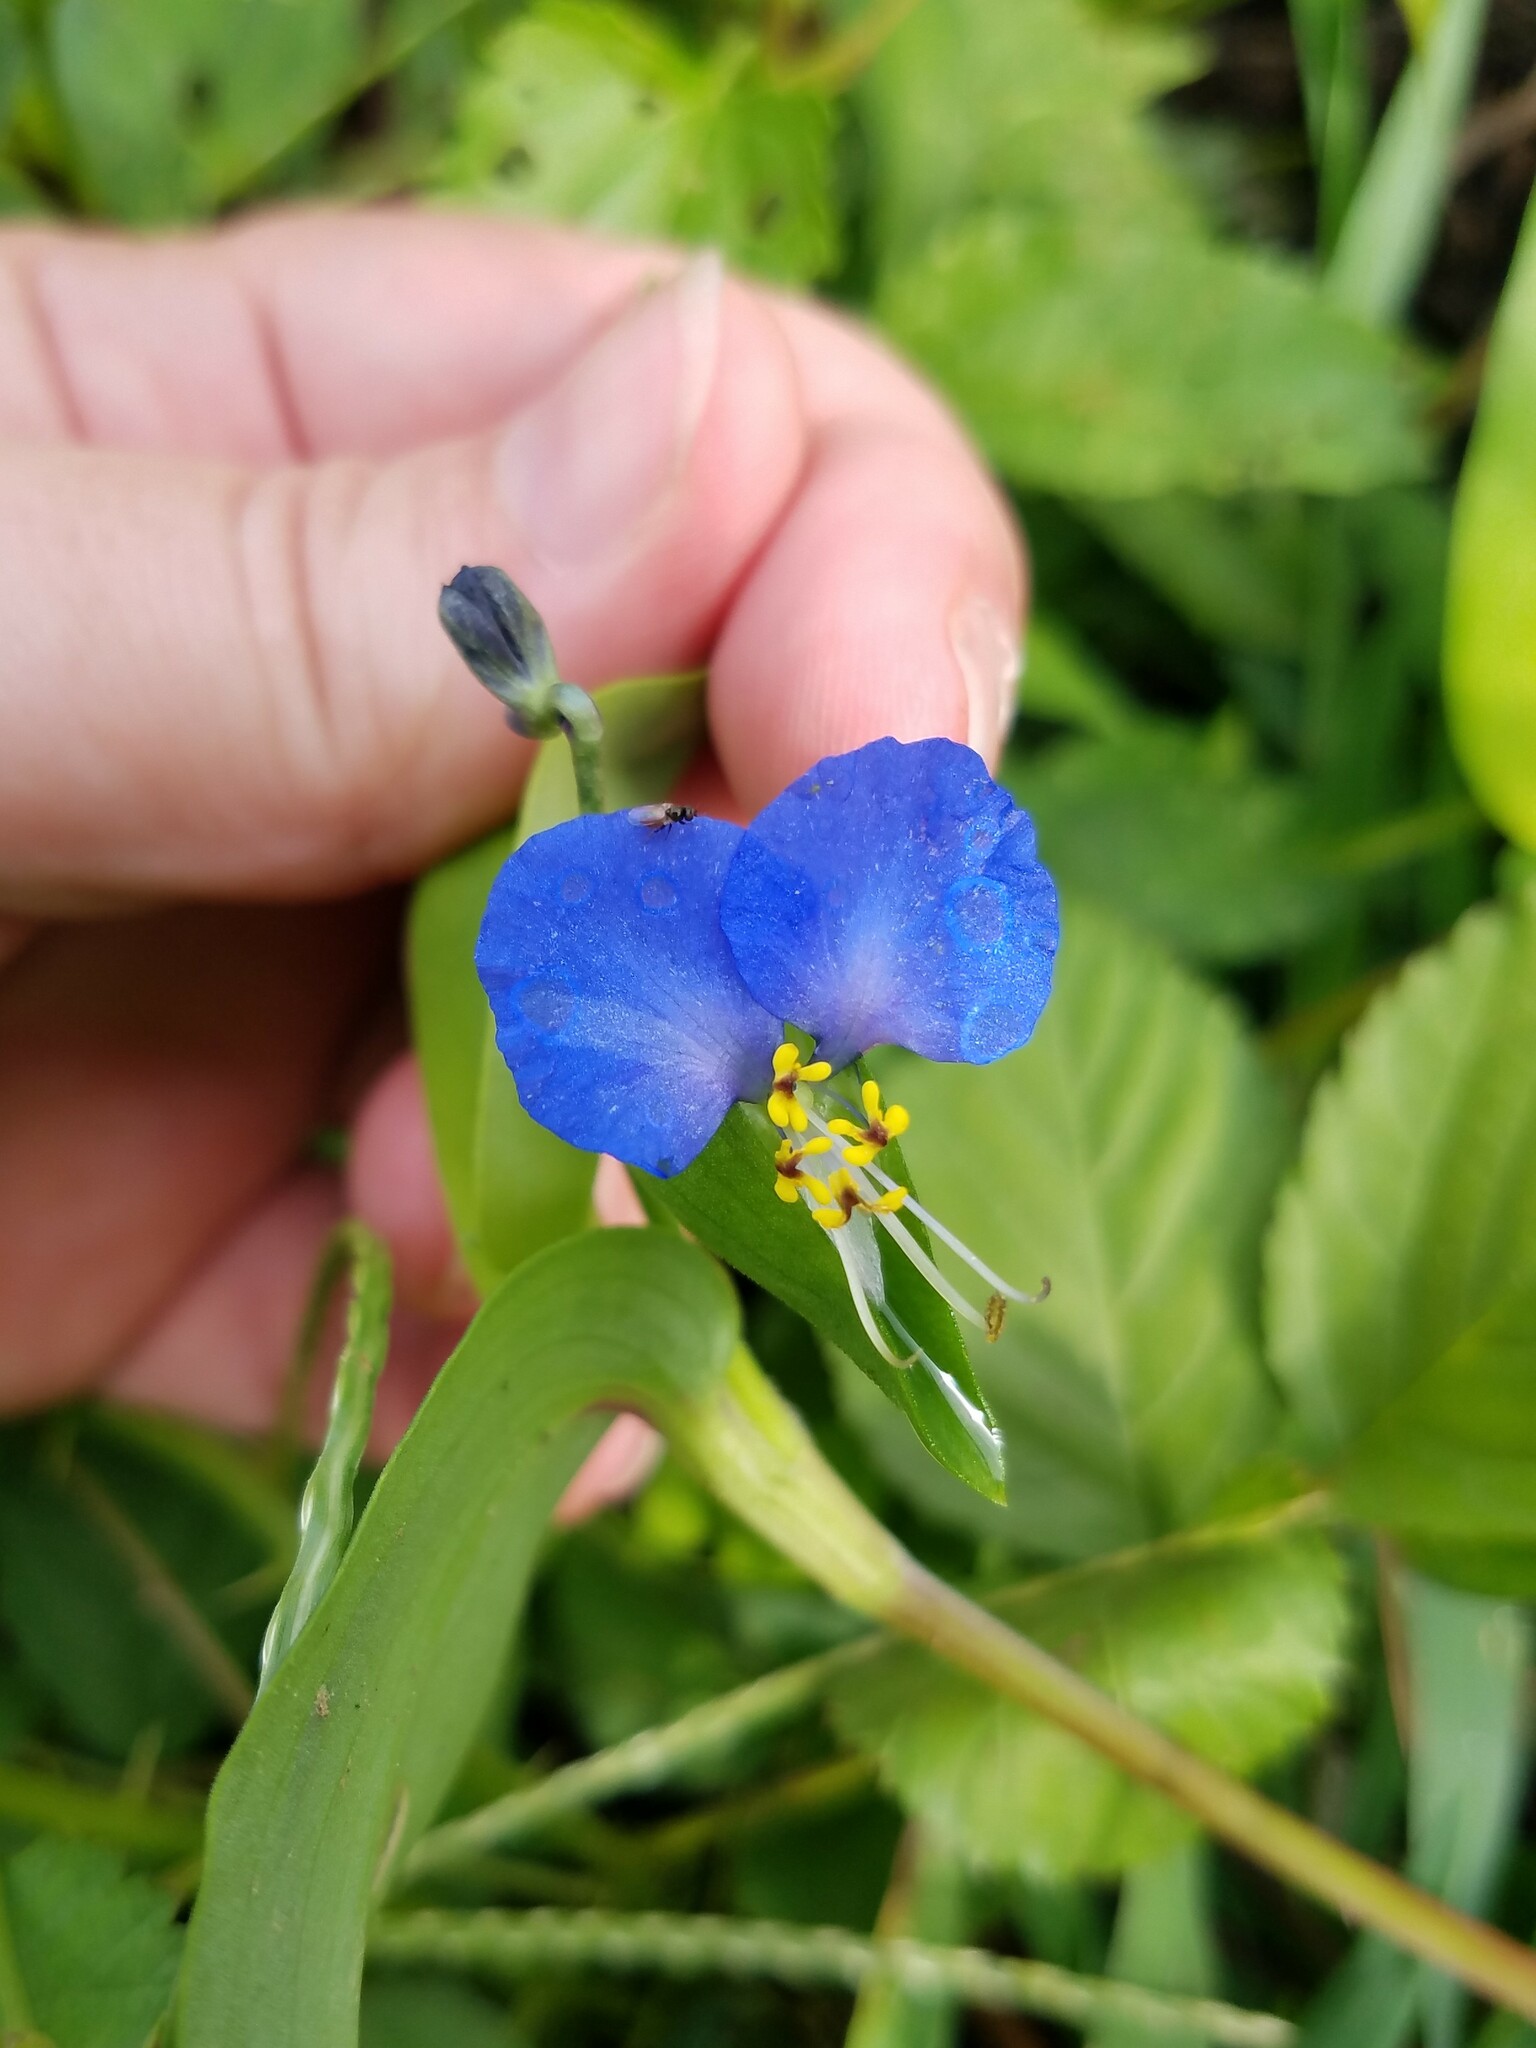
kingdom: Plantae
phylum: Tracheophyta
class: Liliopsida
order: Commelinales
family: Commelinaceae
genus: Commelina
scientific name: Commelina communis
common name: Asiatic dayflower
